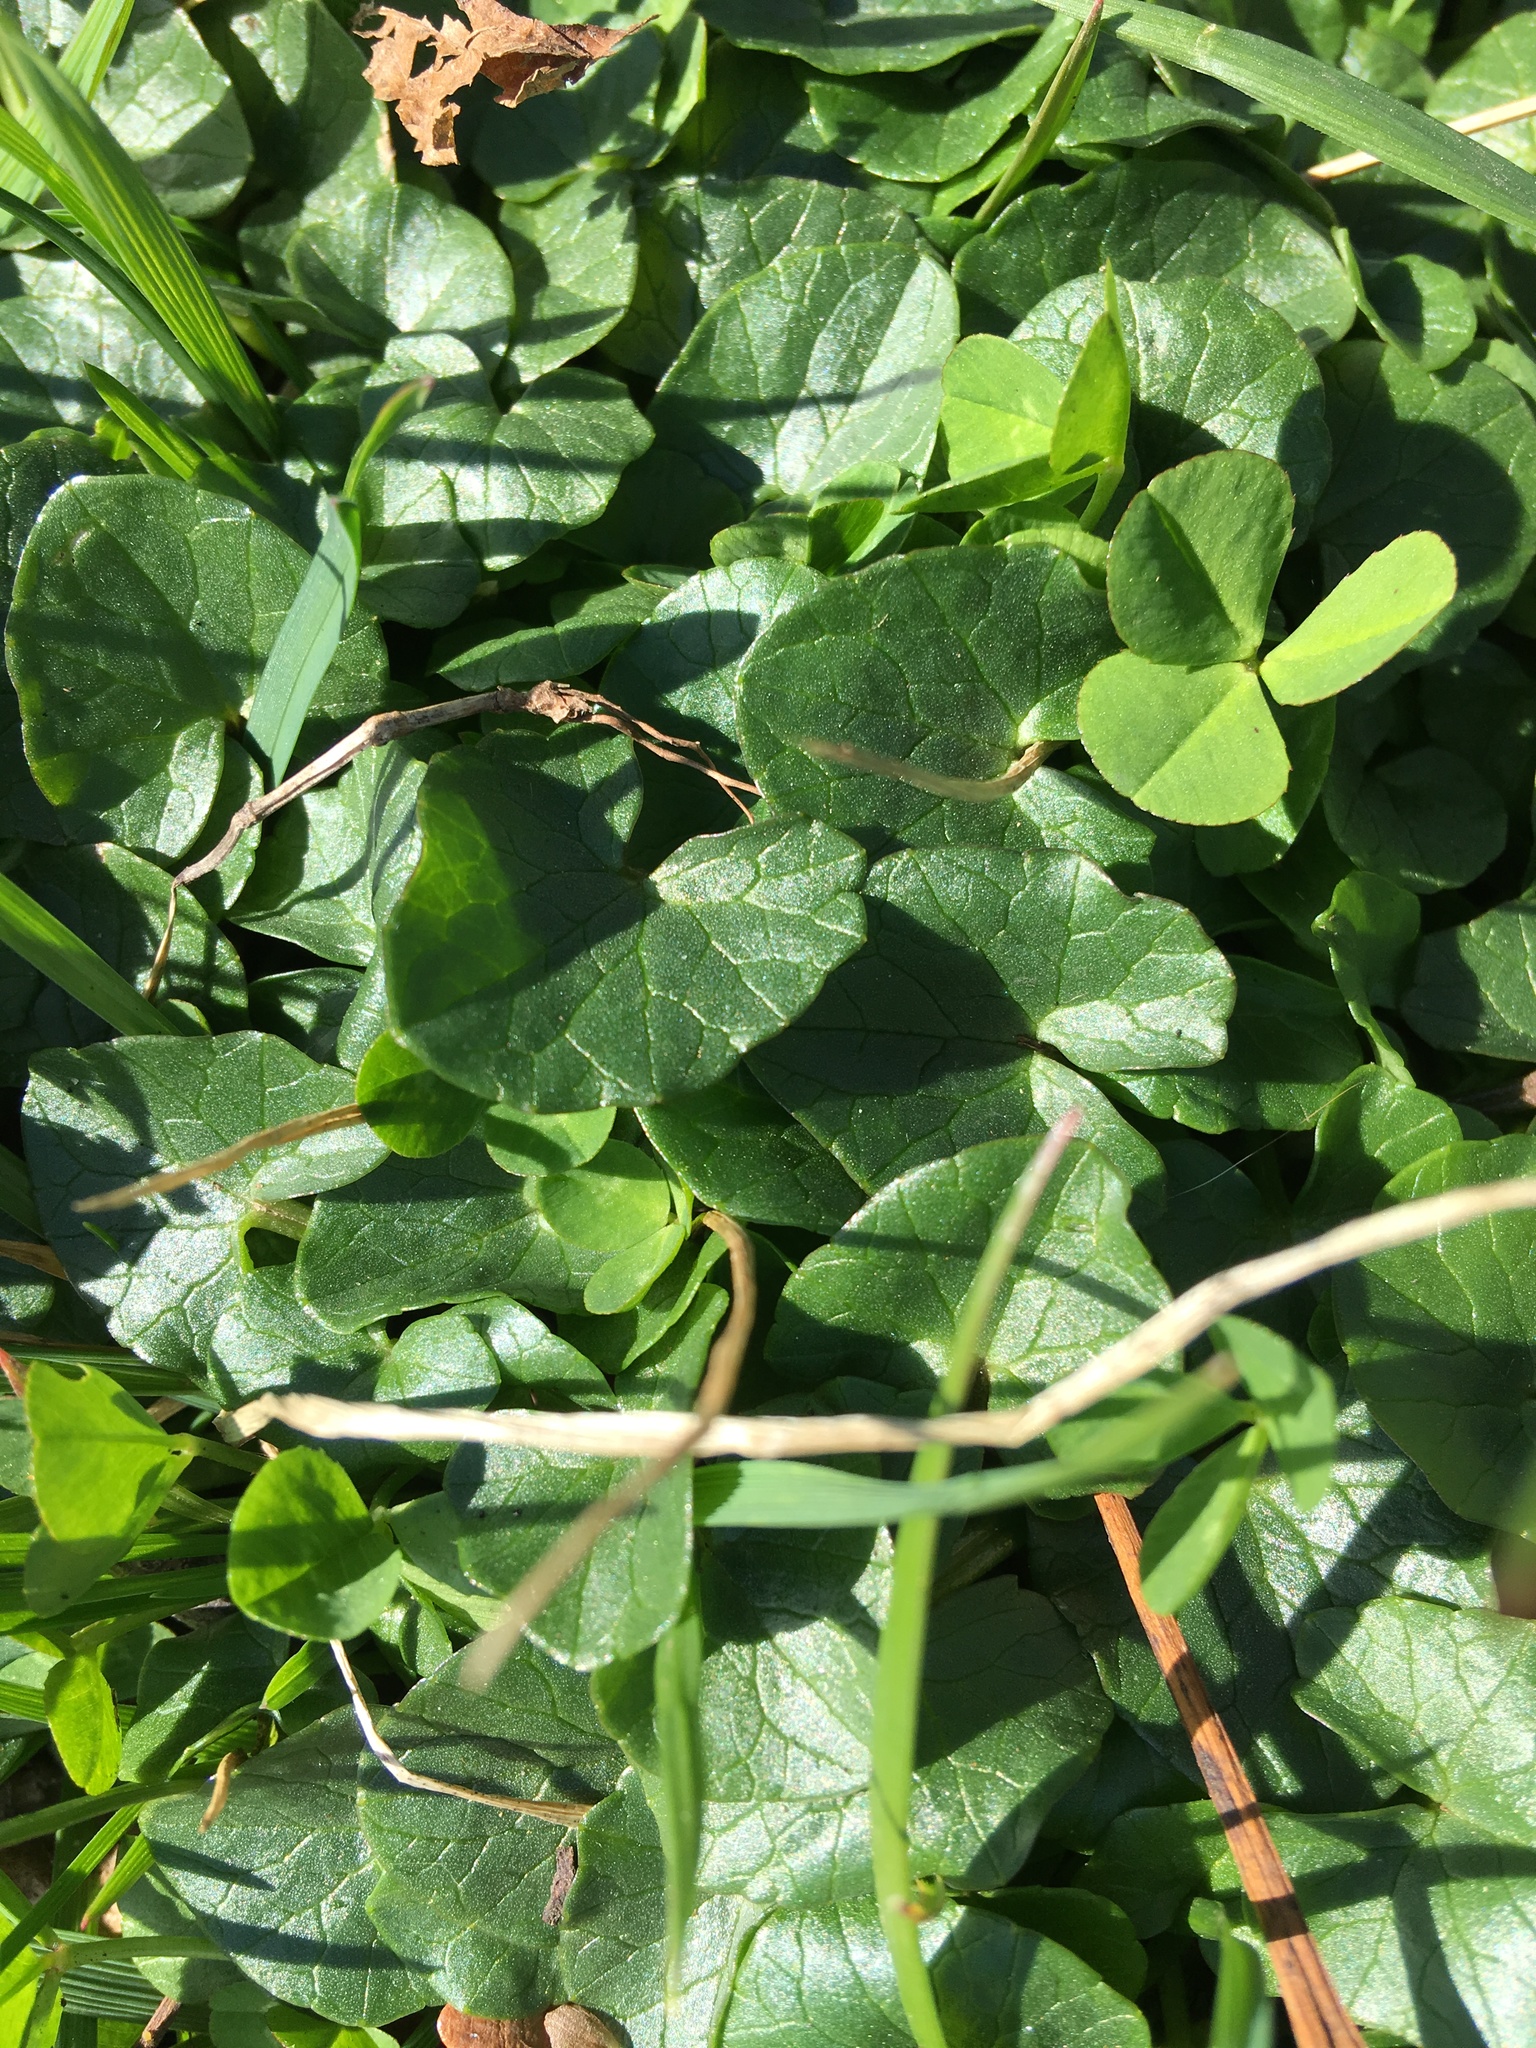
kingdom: Plantae
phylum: Tracheophyta
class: Magnoliopsida
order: Ranunculales
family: Ranunculaceae
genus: Ficaria
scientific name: Ficaria verna
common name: Lesser celandine
